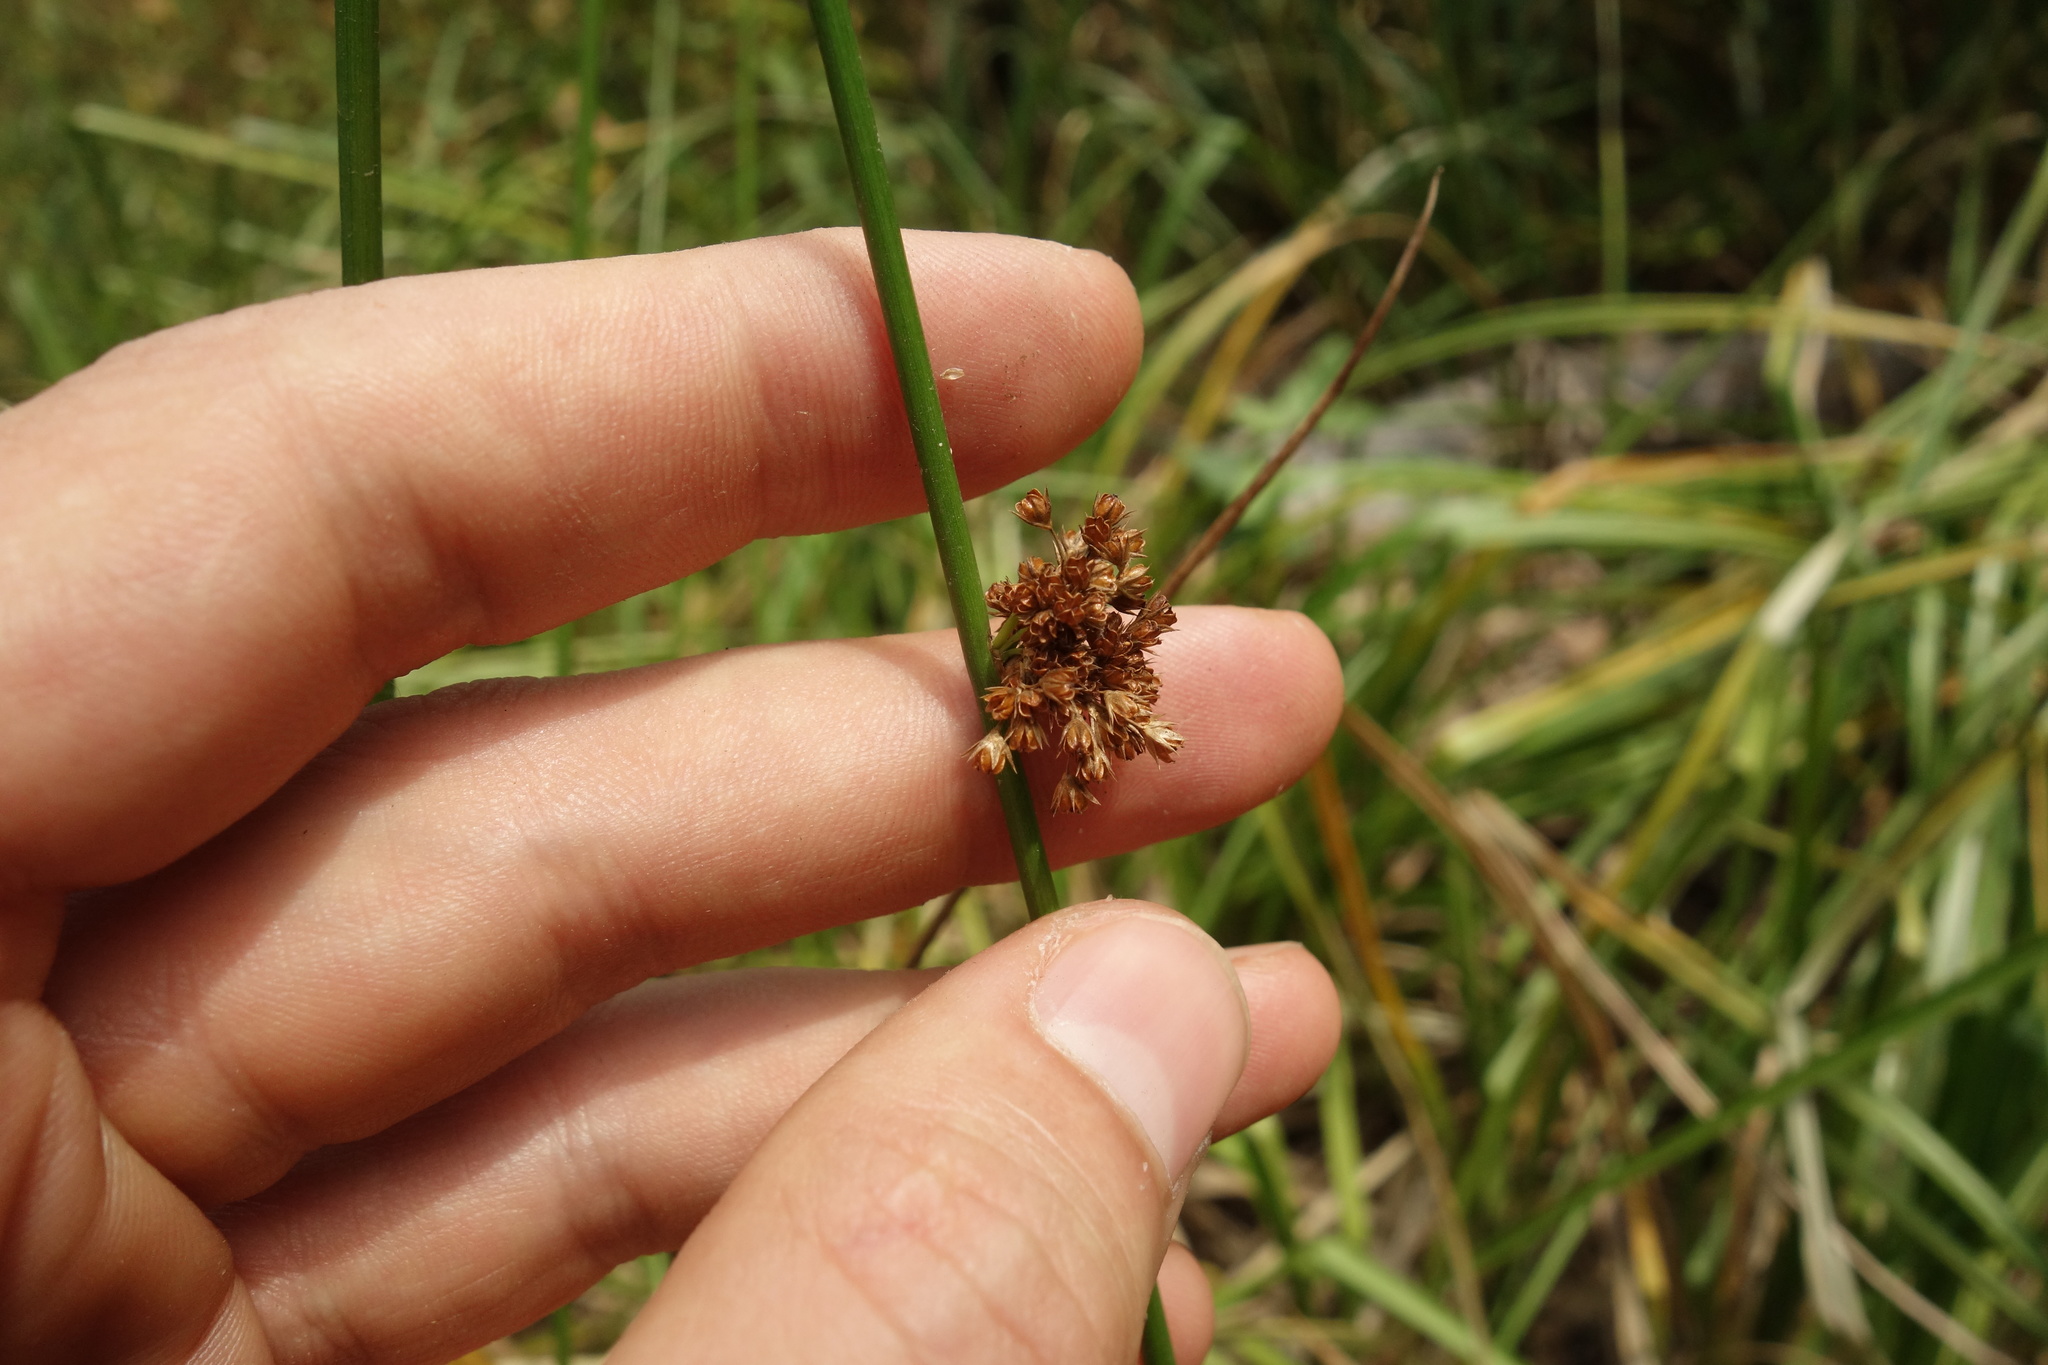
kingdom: Plantae
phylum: Tracheophyta
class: Liliopsida
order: Poales
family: Juncaceae
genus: Juncus
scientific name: Juncus effusus
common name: Soft rush
